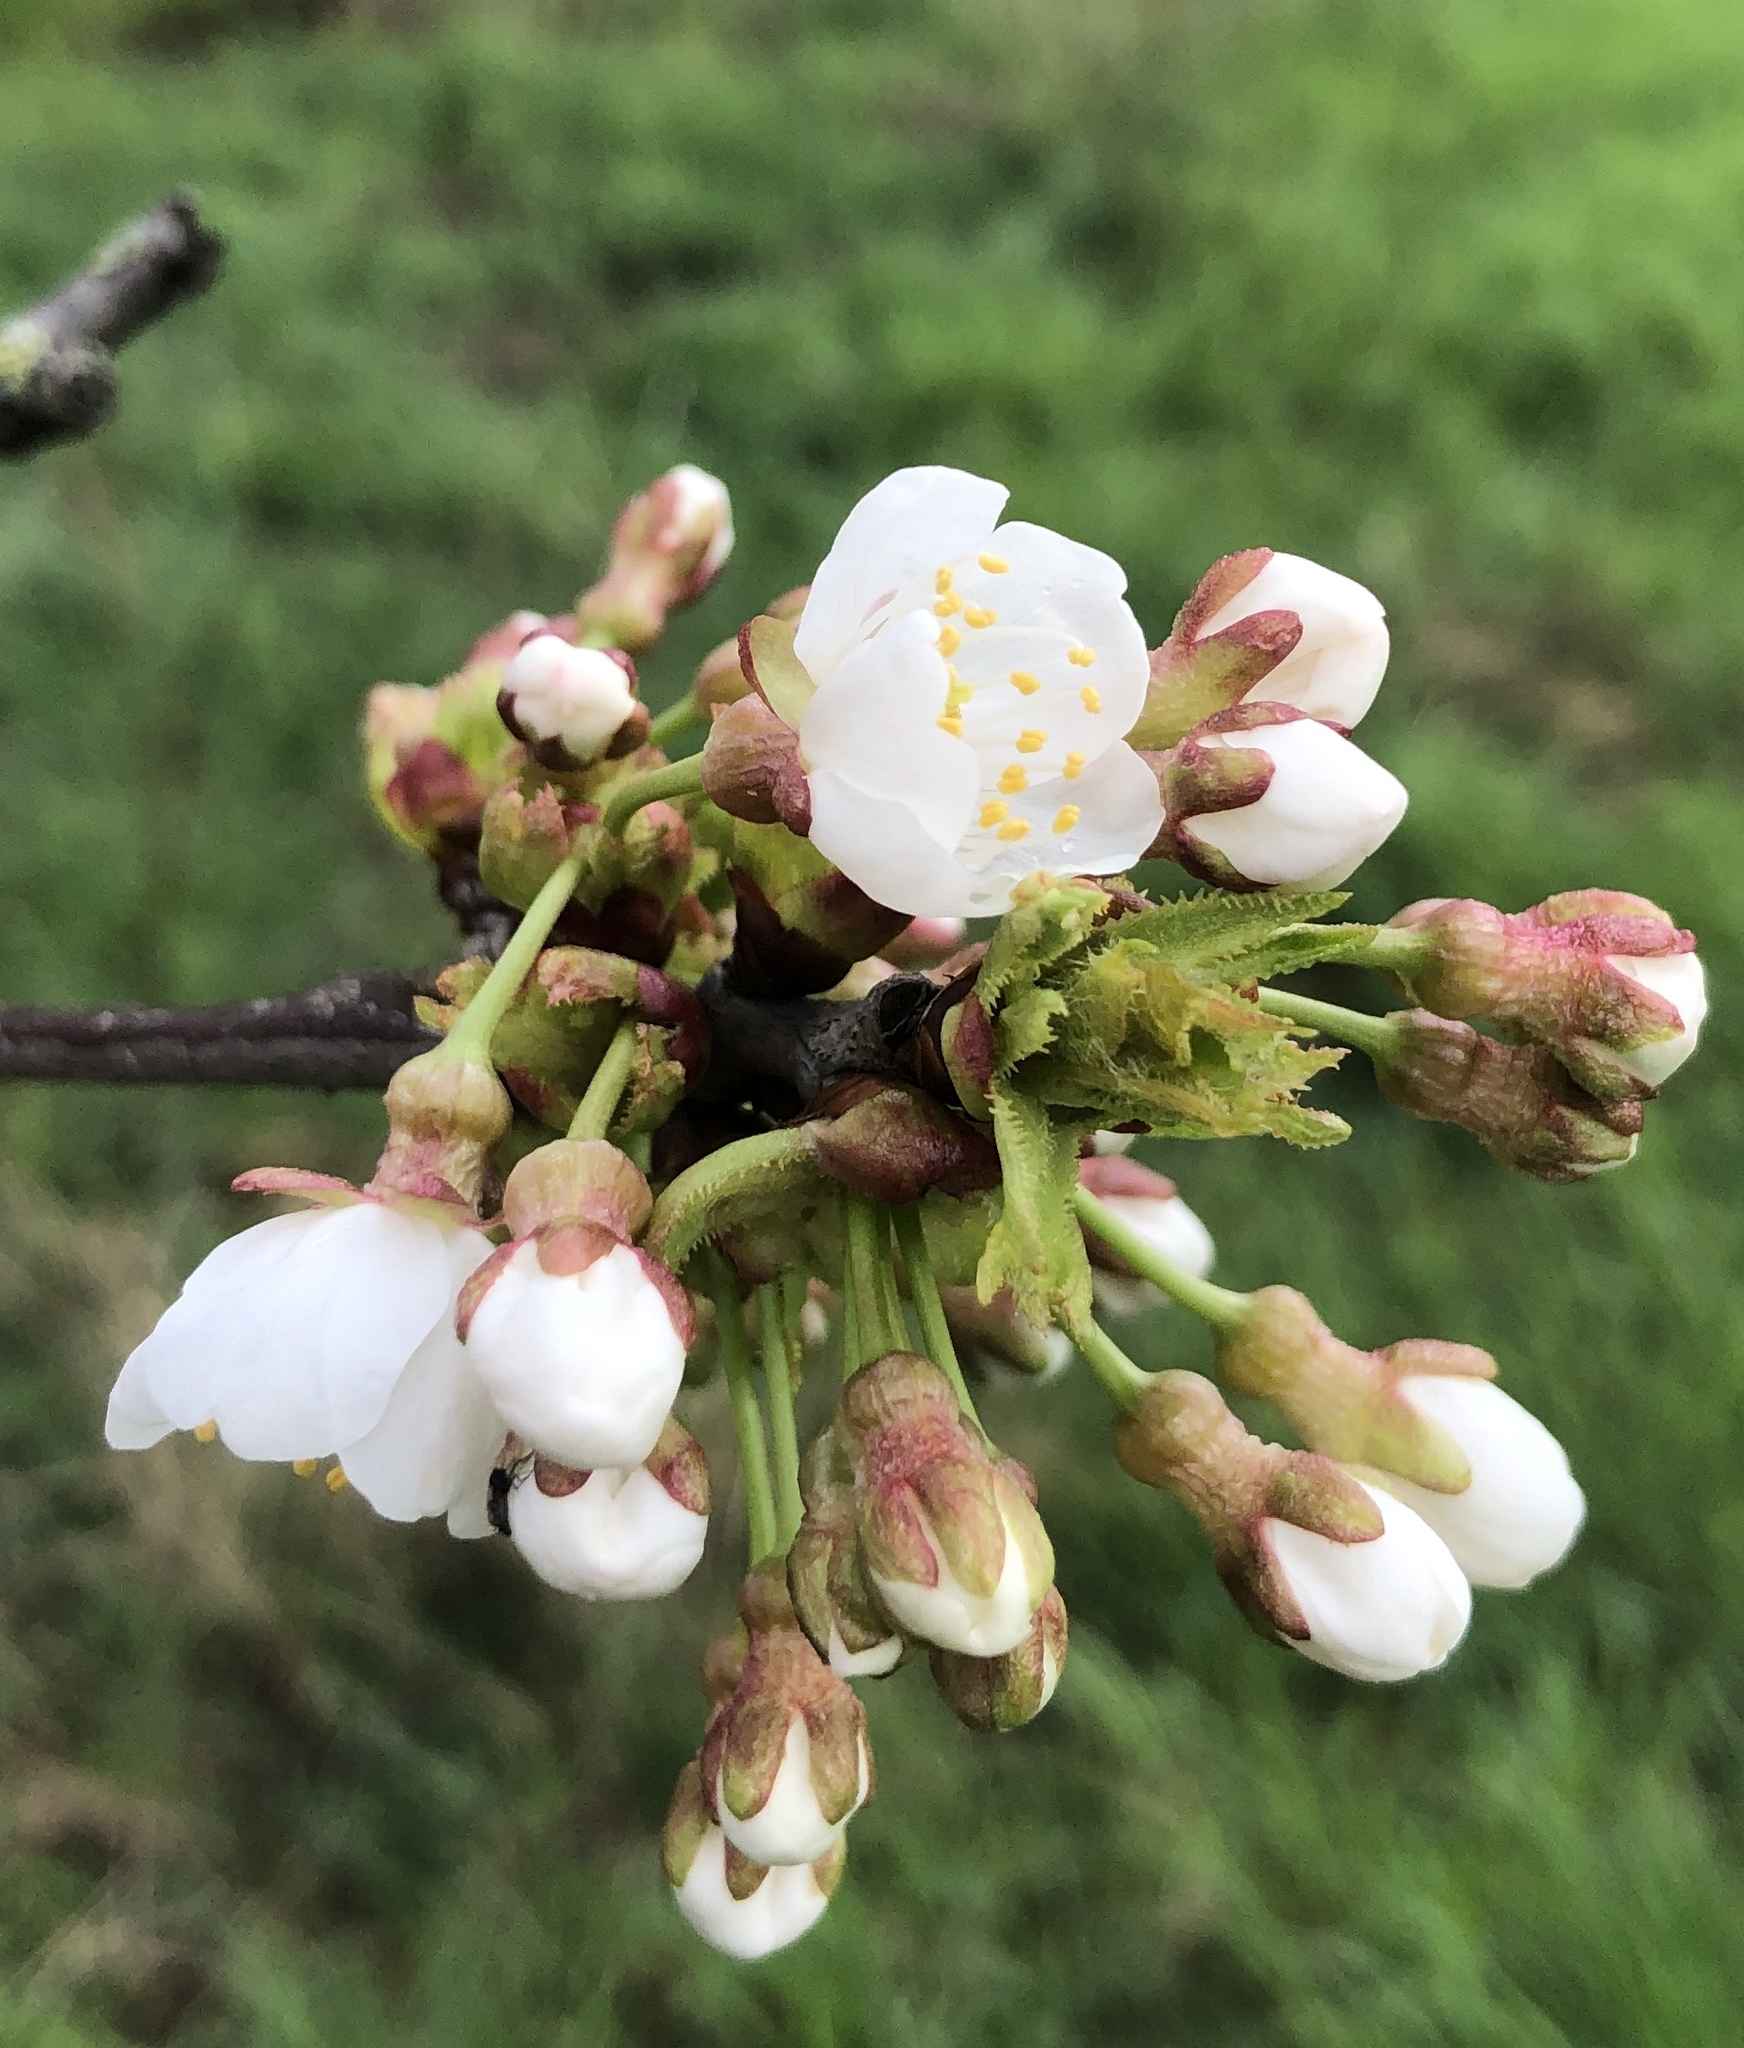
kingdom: Plantae
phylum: Tracheophyta
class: Magnoliopsida
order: Rosales
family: Rosaceae
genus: Prunus
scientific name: Prunus avium
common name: Sweet cherry
